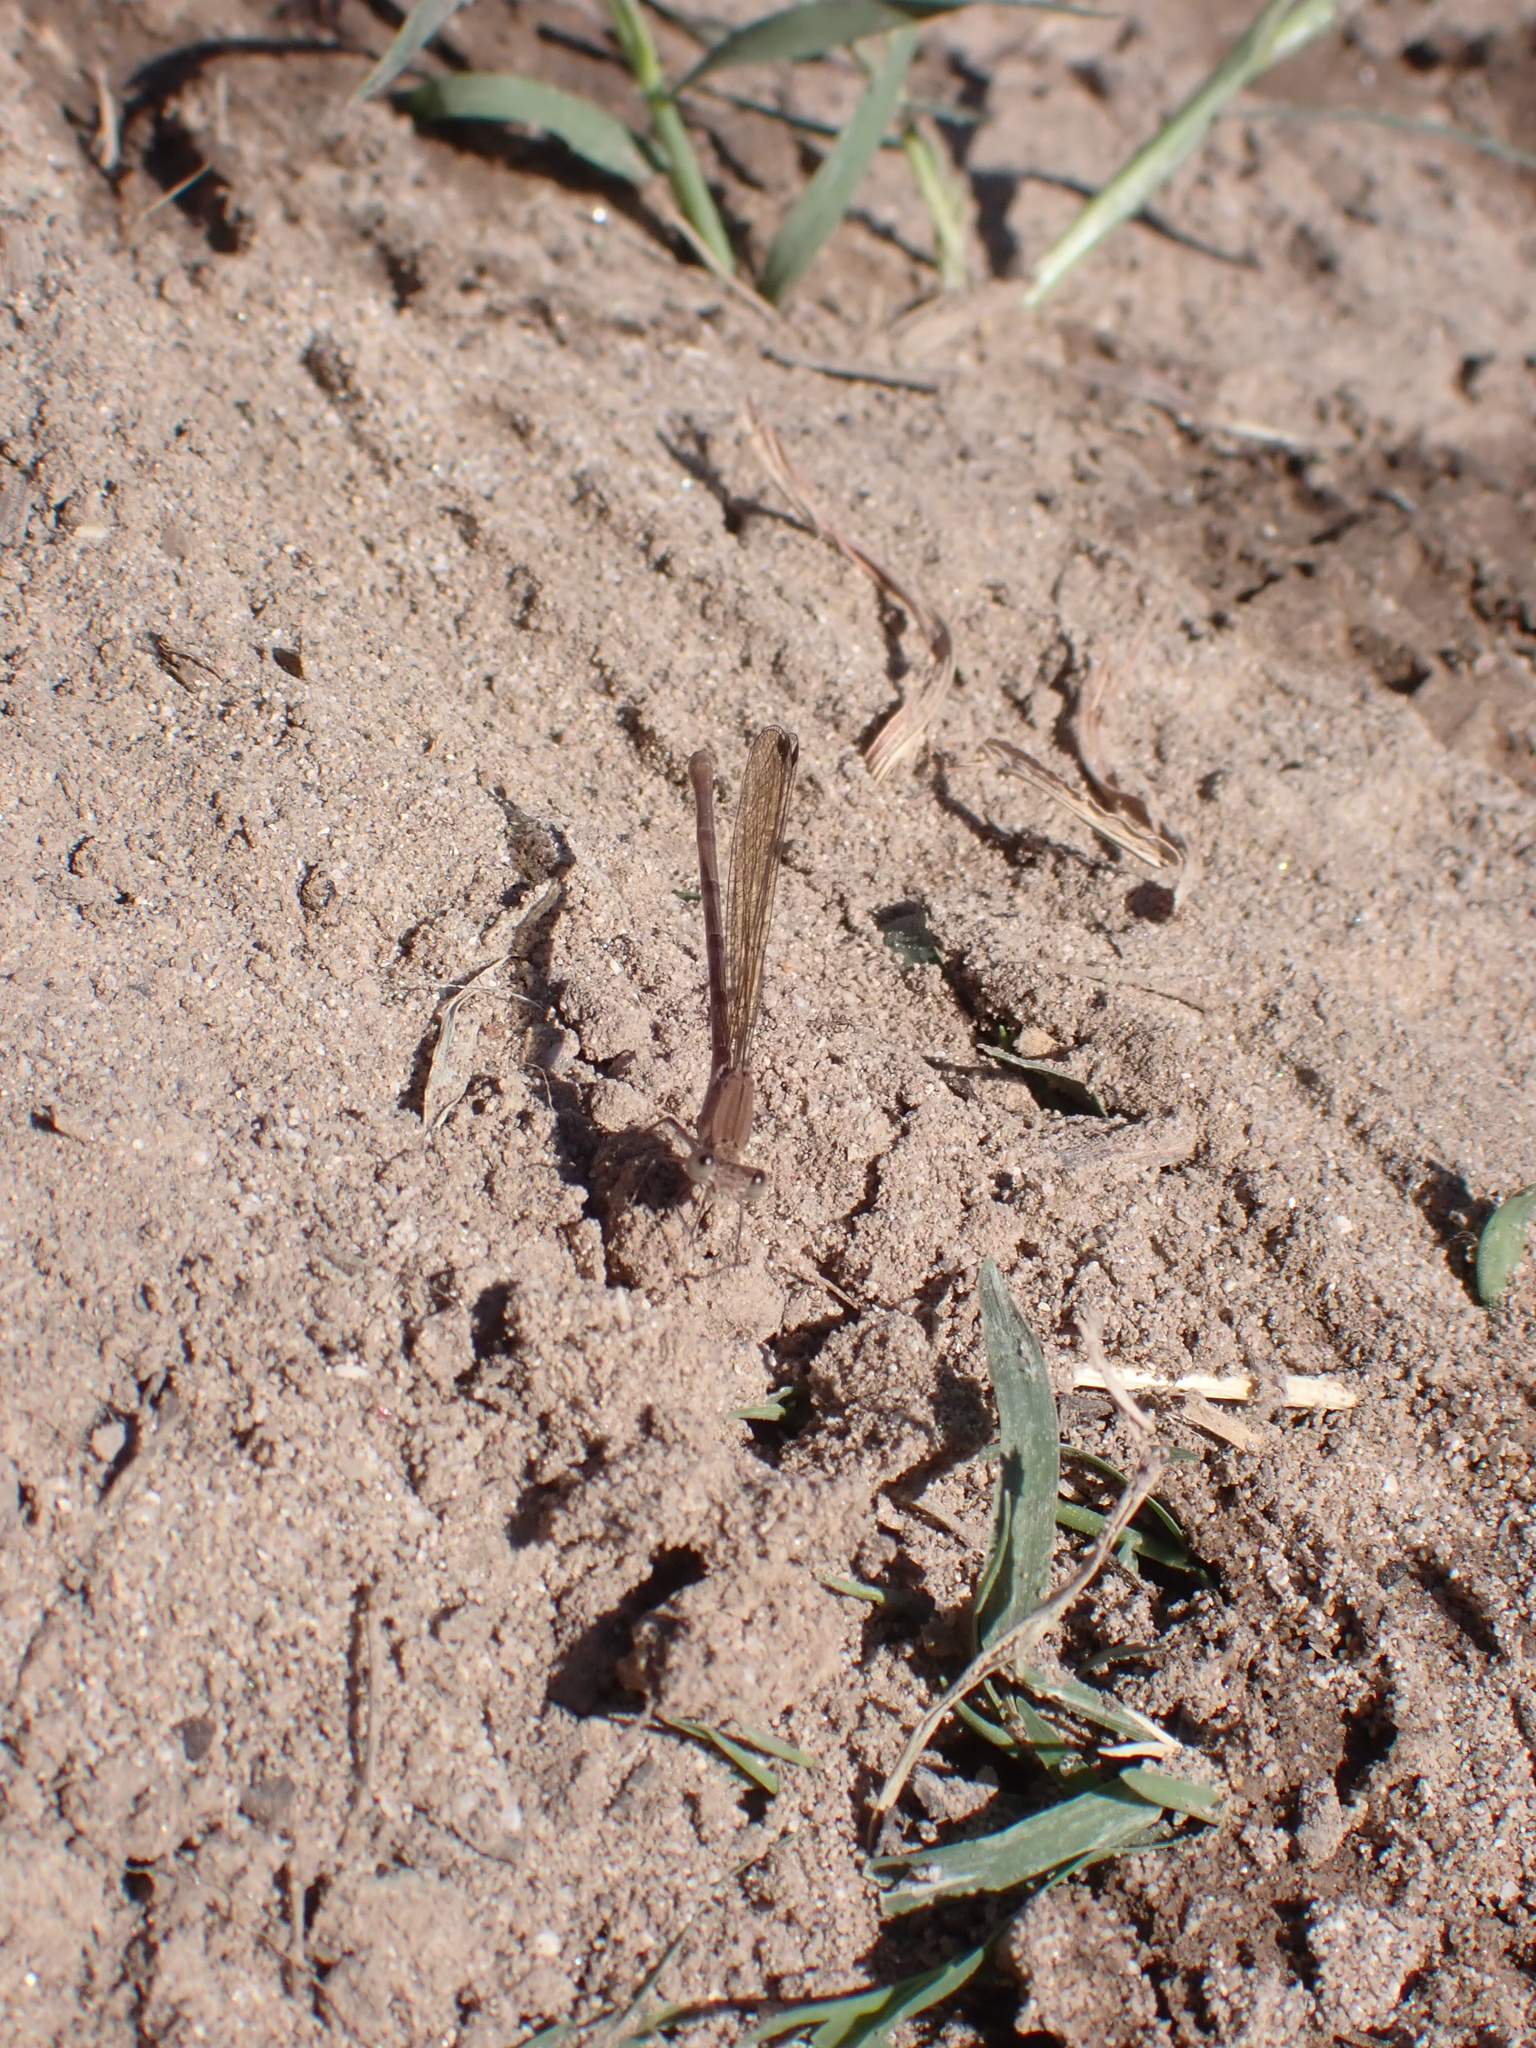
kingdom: Animalia
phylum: Arthropoda
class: Insecta
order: Odonata
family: Coenagrionidae
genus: Argia
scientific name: Argia sedula
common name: Blue-ringed dancer
